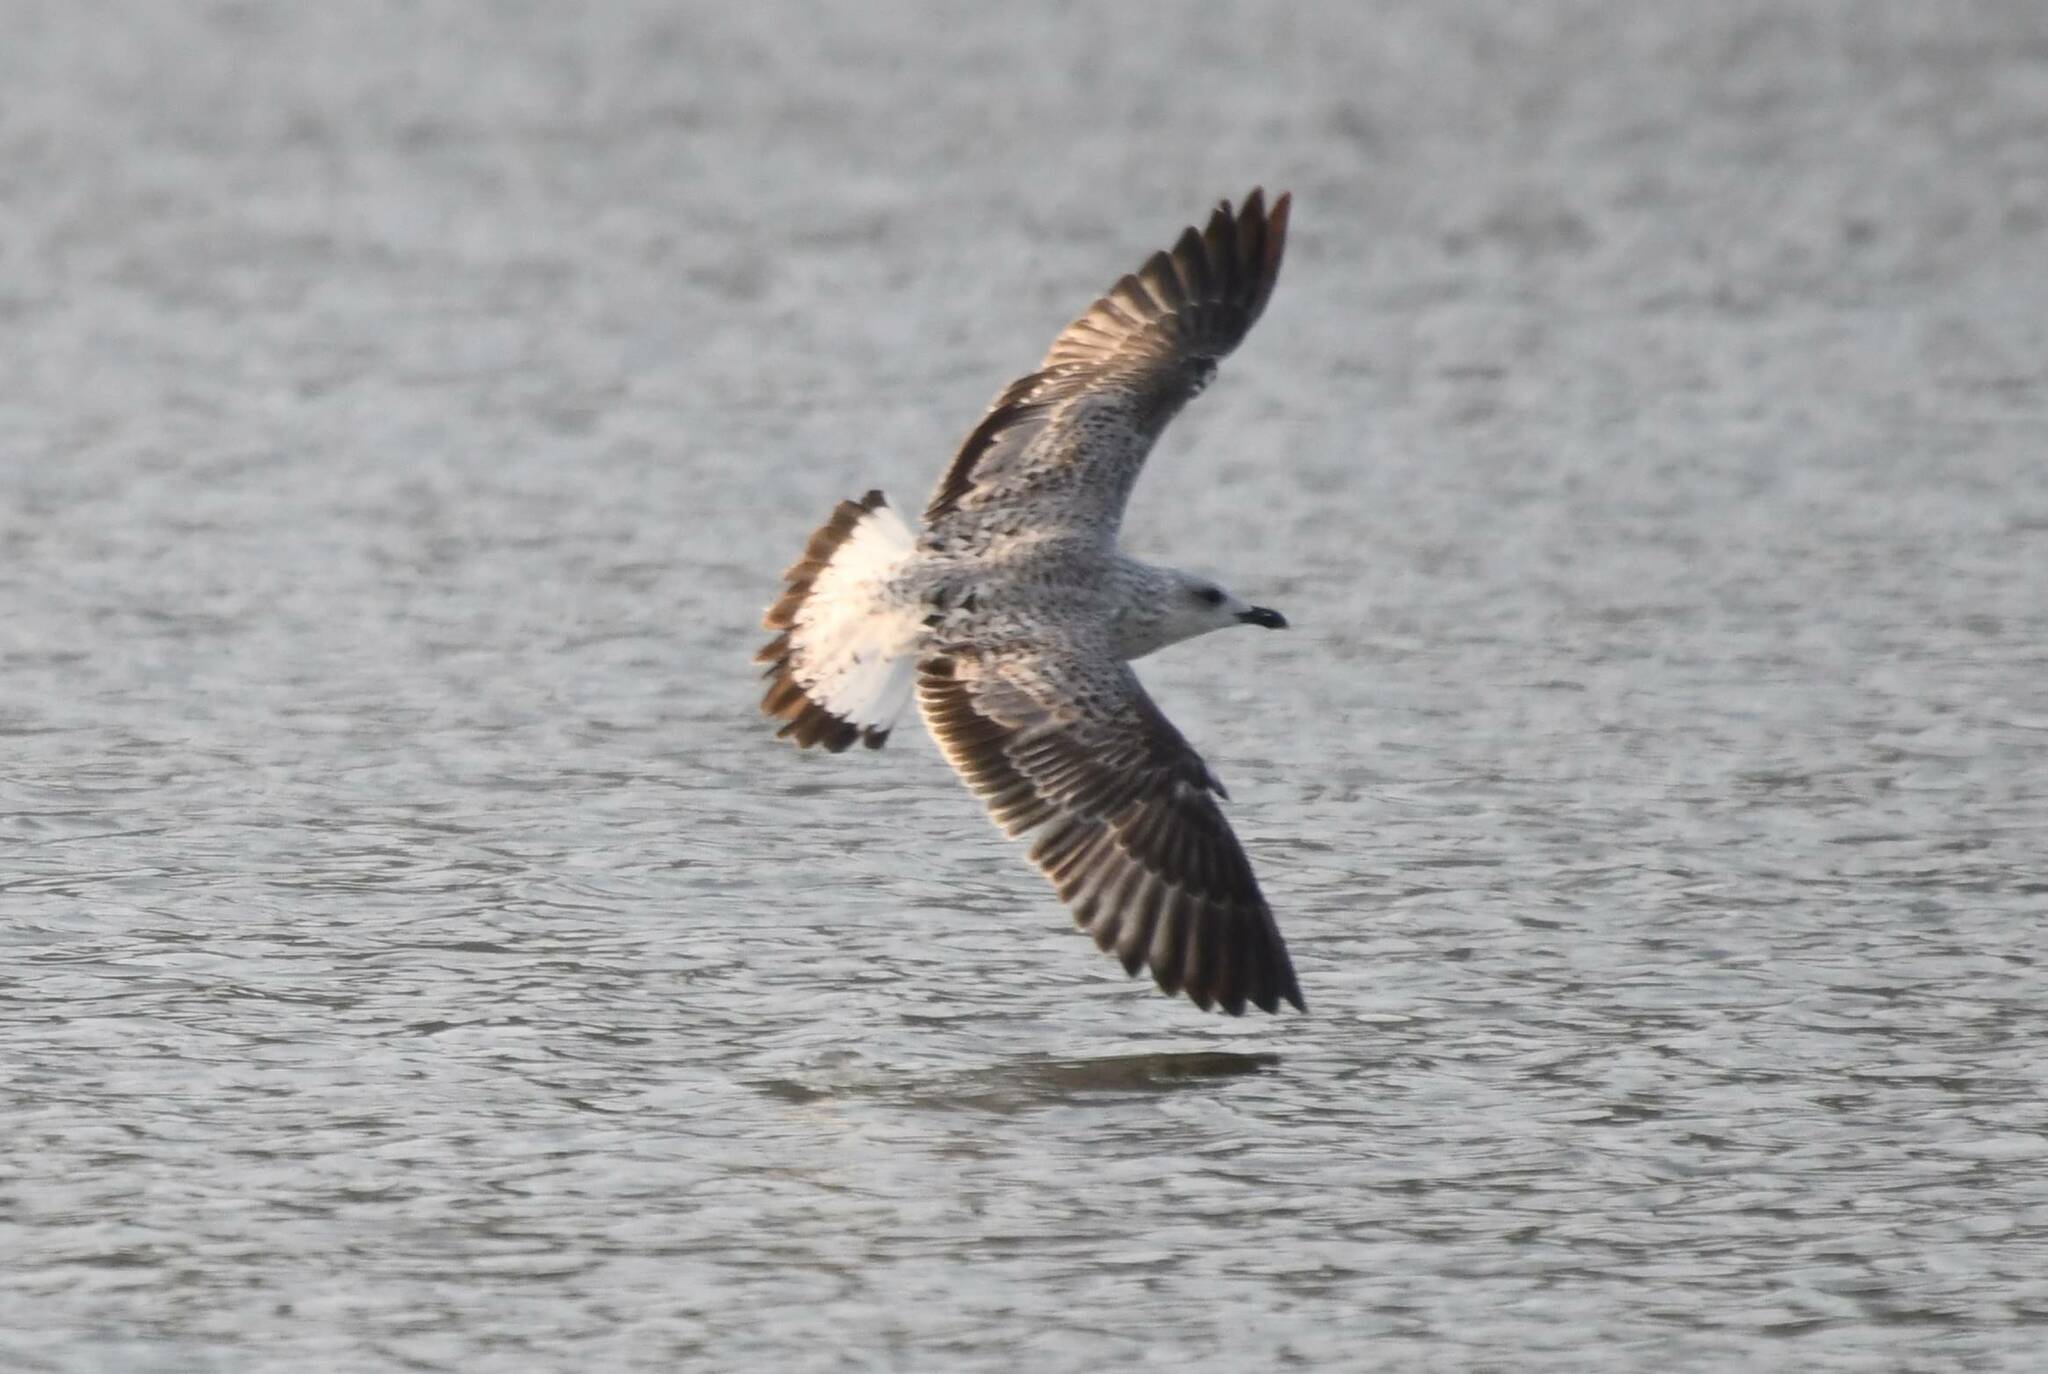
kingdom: Animalia
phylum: Chordata
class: Aves
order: Charadriiformes
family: Laridae
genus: Larus
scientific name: Larus michahellis
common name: Yellow-legged gull
